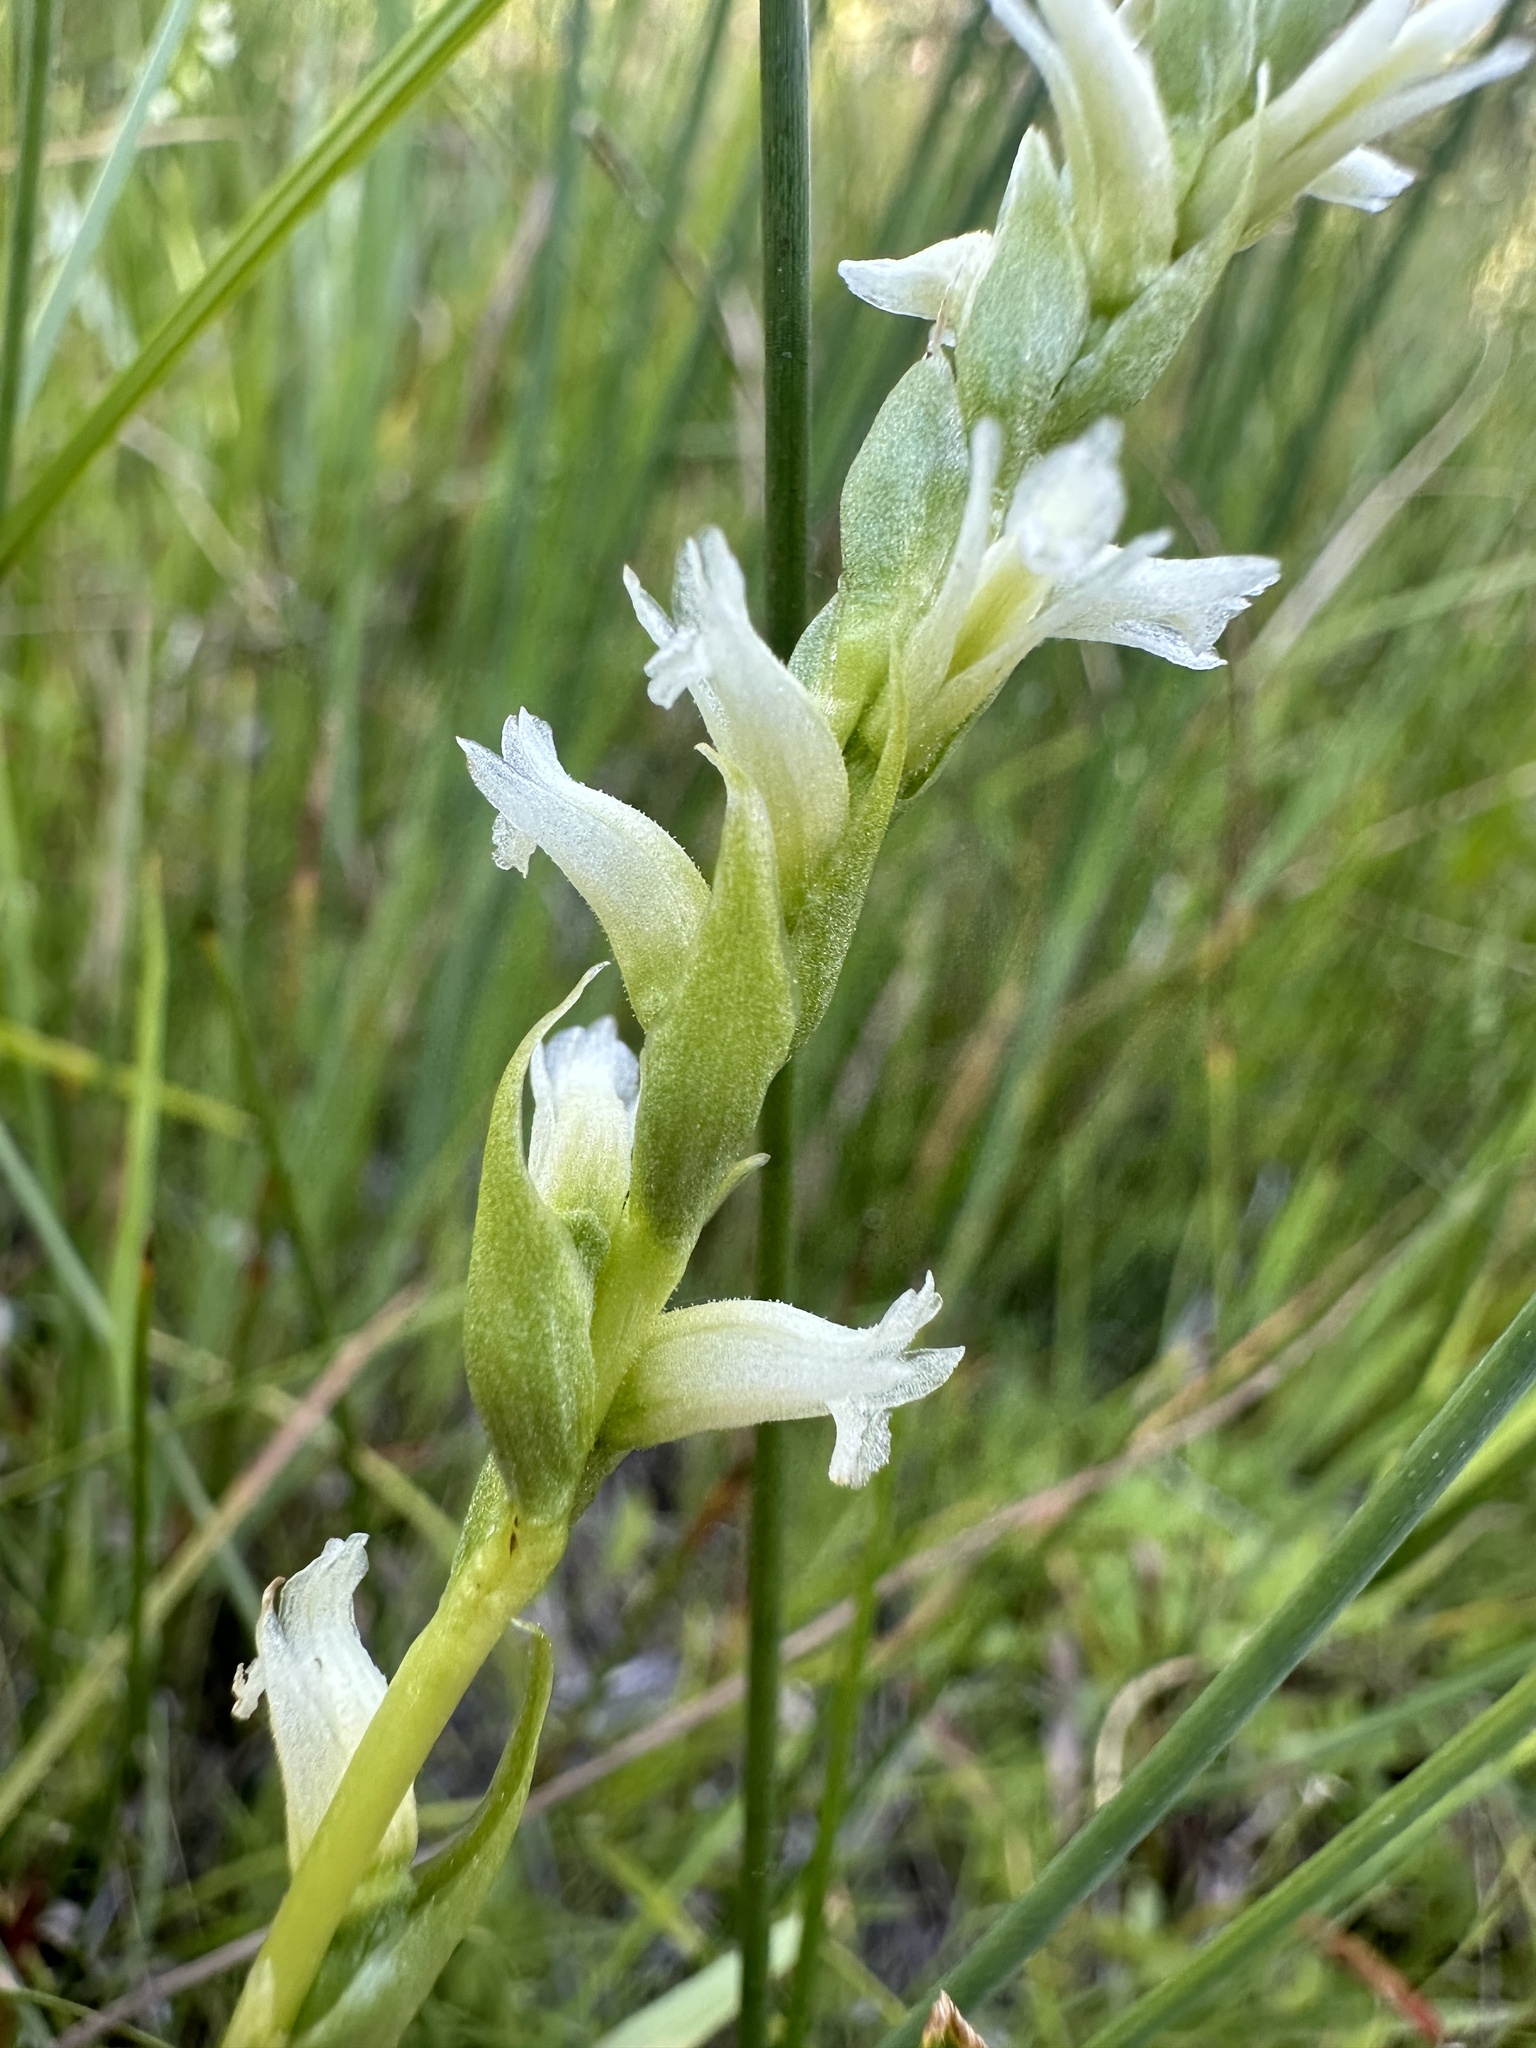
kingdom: Plantae
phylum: Tracheophyta
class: Liliopsida
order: Asparagales
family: Orchidaceae
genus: Spiranthes
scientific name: Spiranthes perexilis
